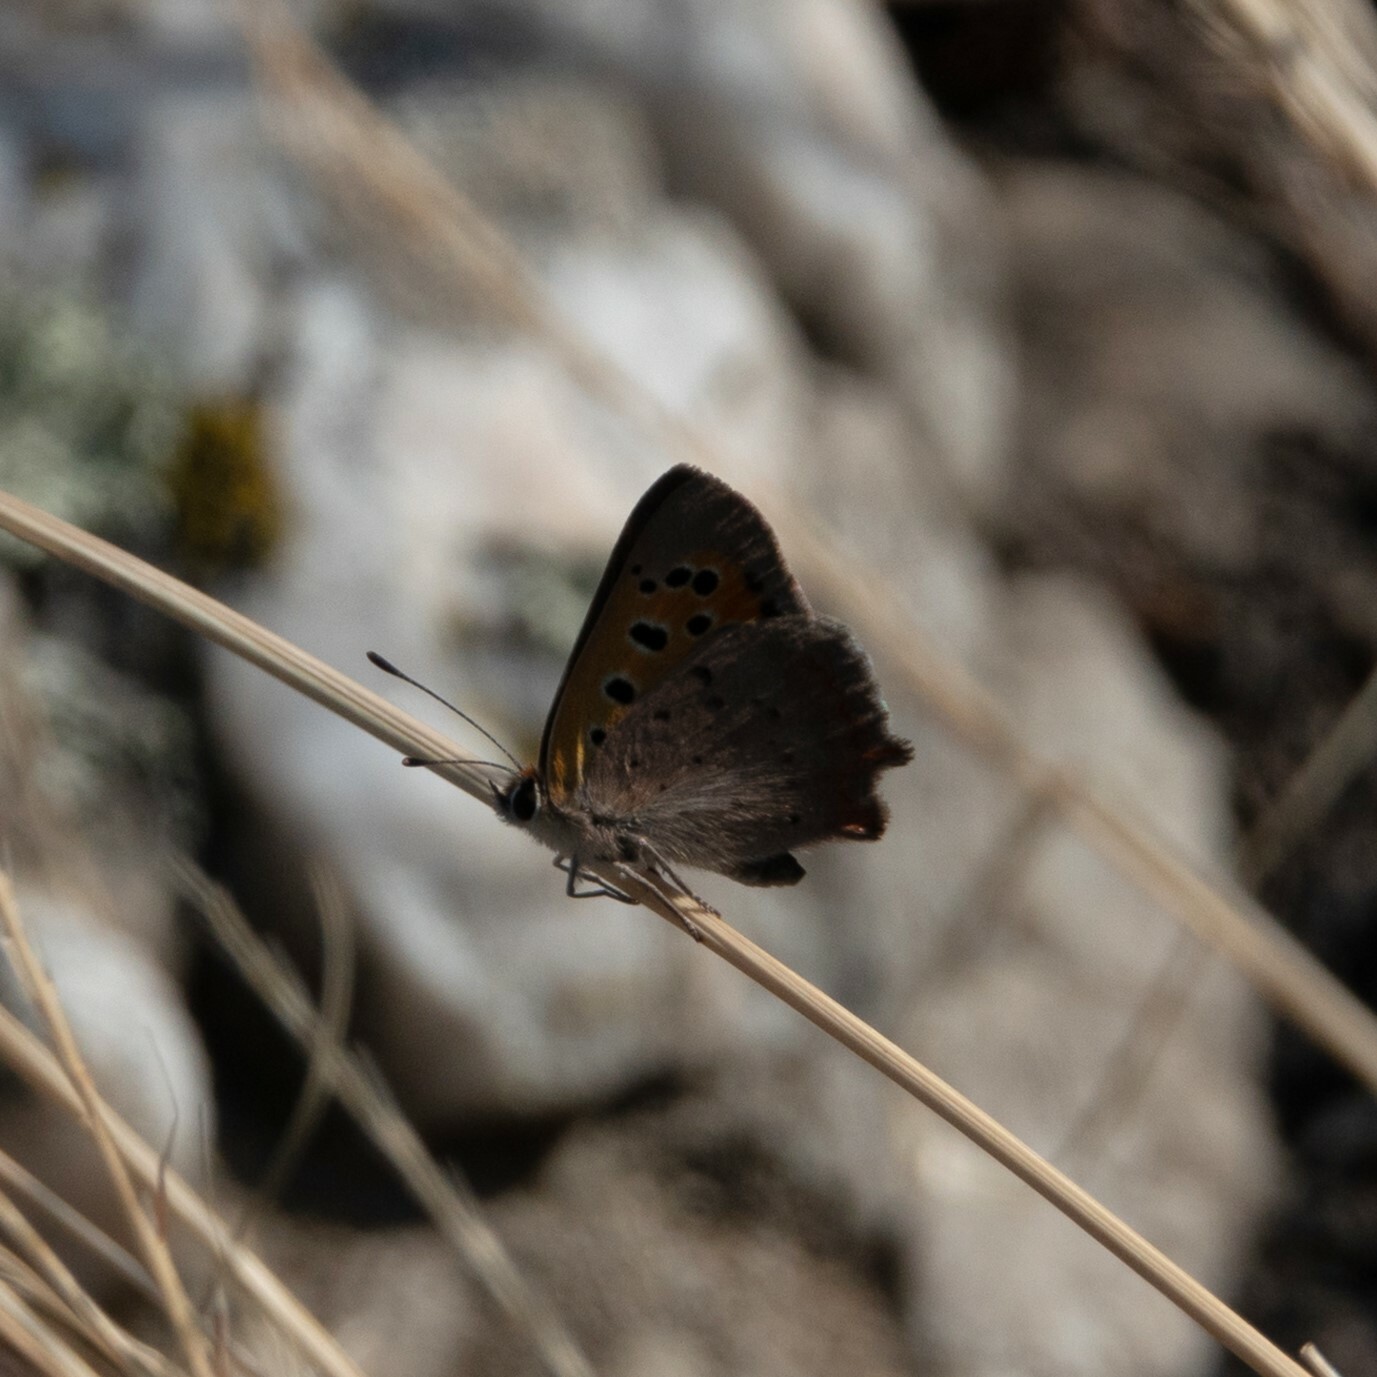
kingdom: Animalia
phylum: Arthropoda
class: Insecta
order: Lepidoptera
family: Lycaenidae
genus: Lycaena
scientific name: Lycaena phlaeas
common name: Small copper
